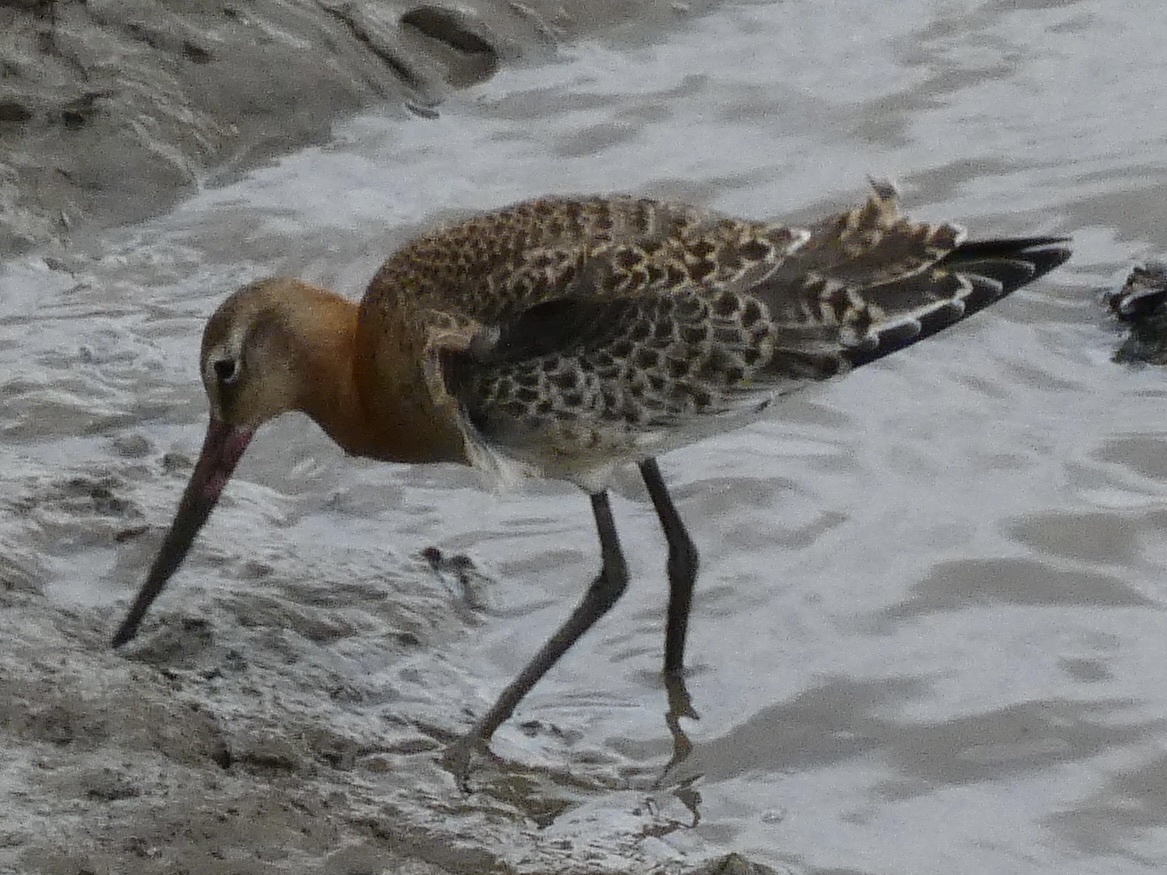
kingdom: Animalia
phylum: Chordata
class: Aves
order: Charadriiformes
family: Scolopacidae
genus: Limosa
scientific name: Limosa limosa
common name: Black-tailed godwit
